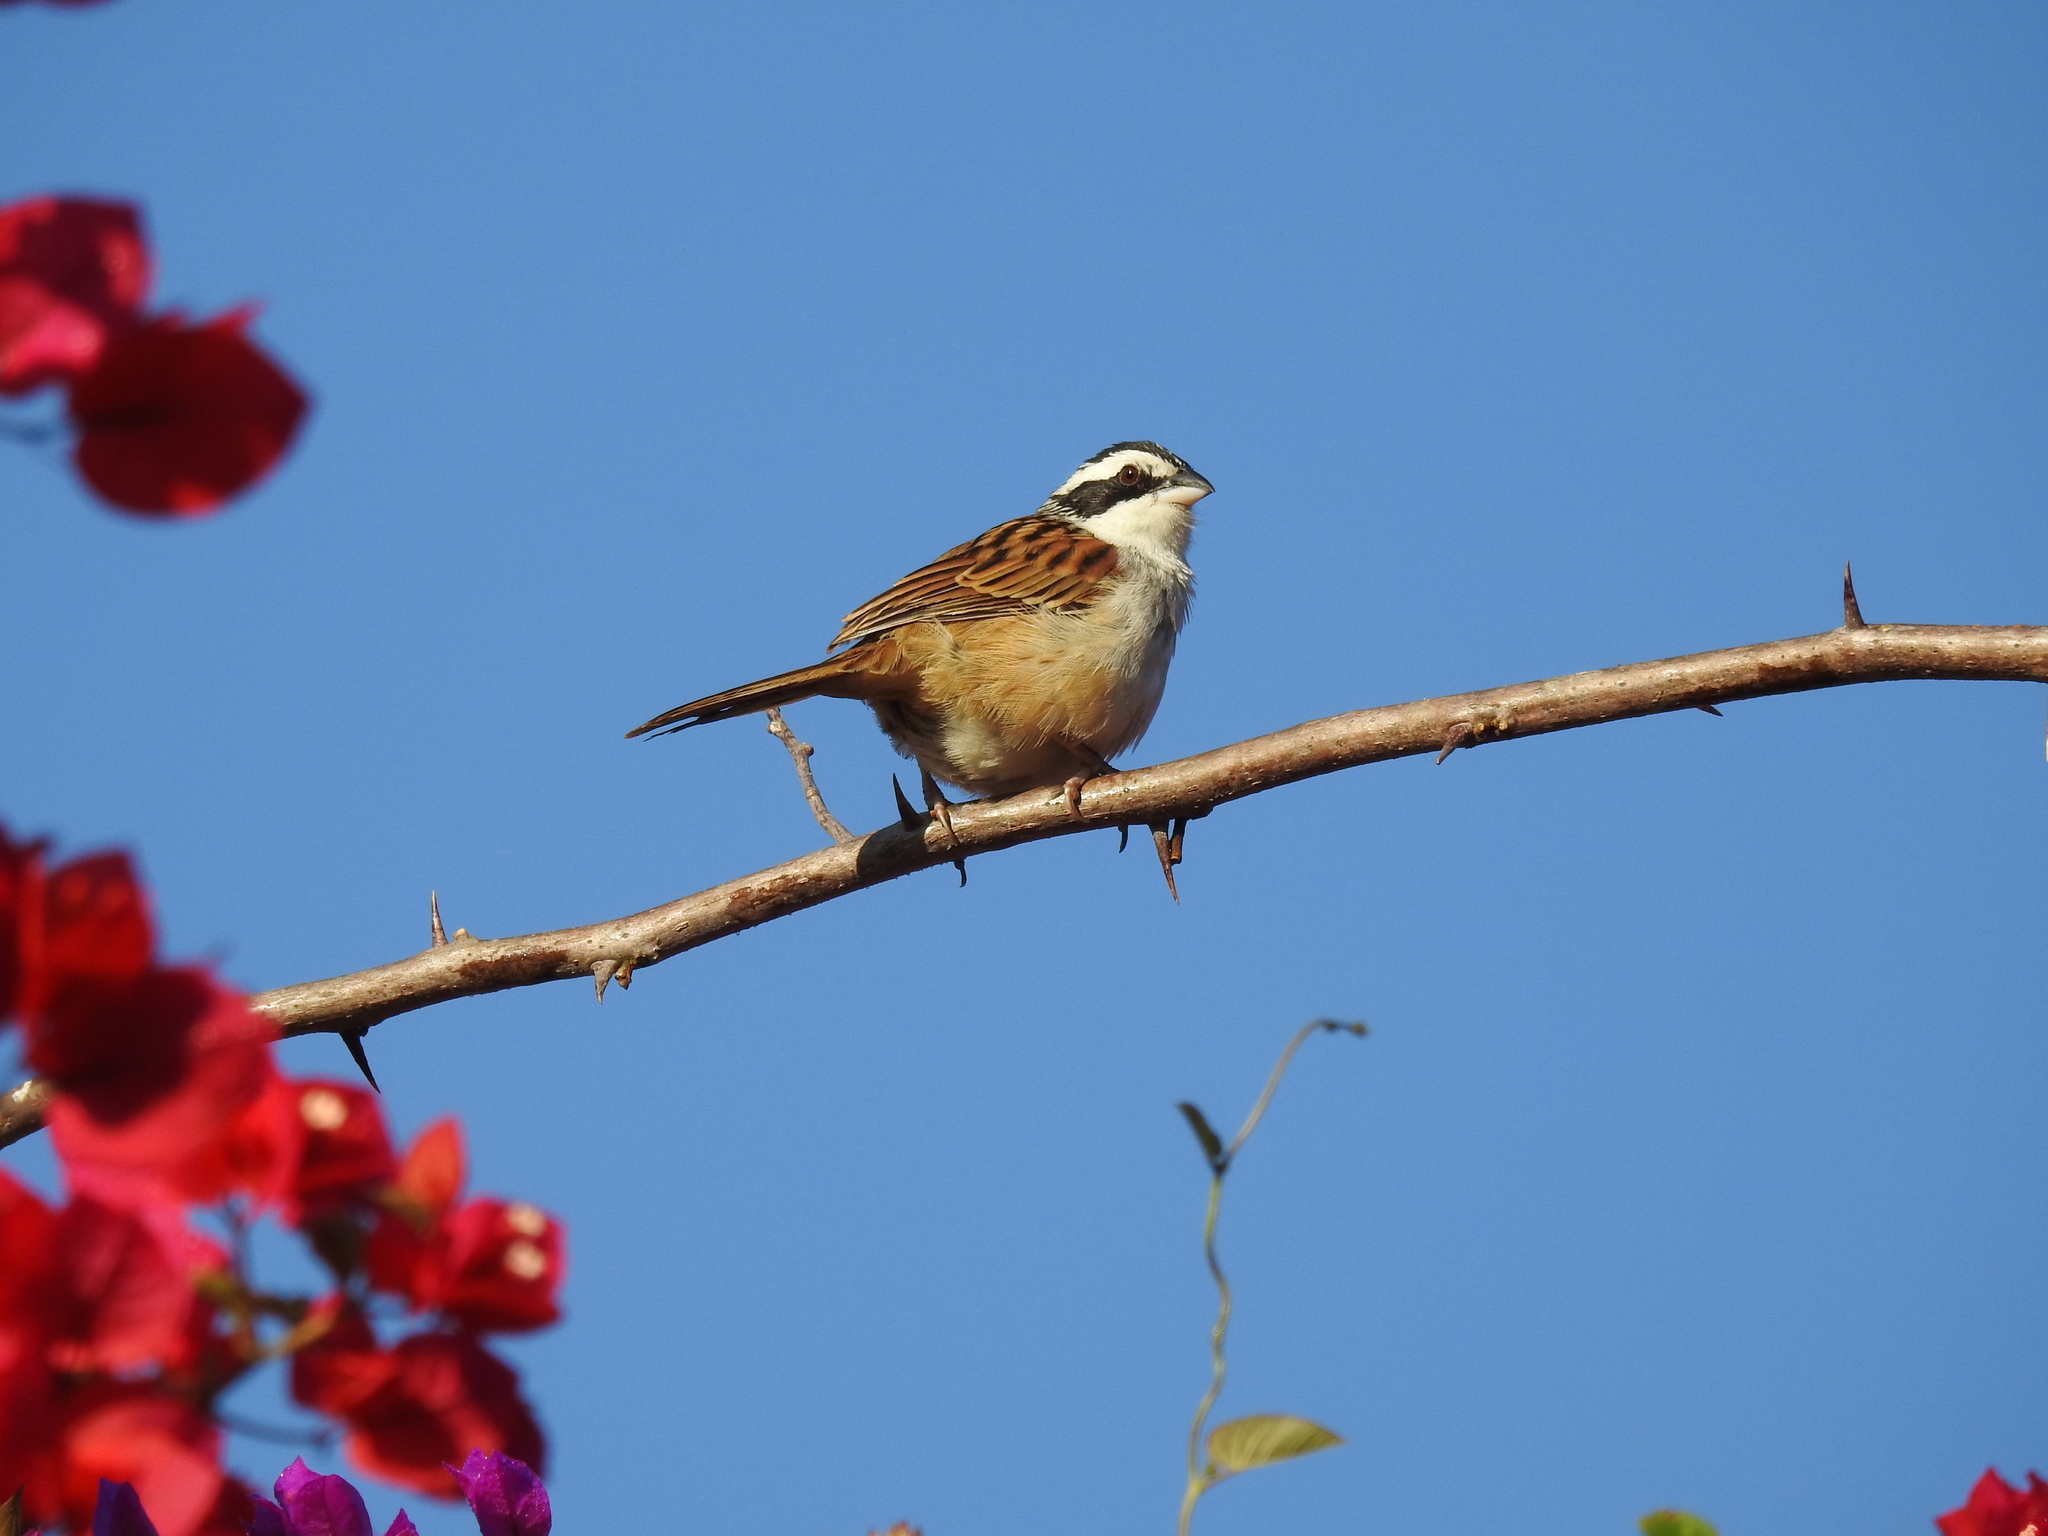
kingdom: Animalia
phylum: Chordata
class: Aves
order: Passeriformes
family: Passerellidae
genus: Peucaea
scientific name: Peucaea ruficauda
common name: Stripe-headed sparrow
